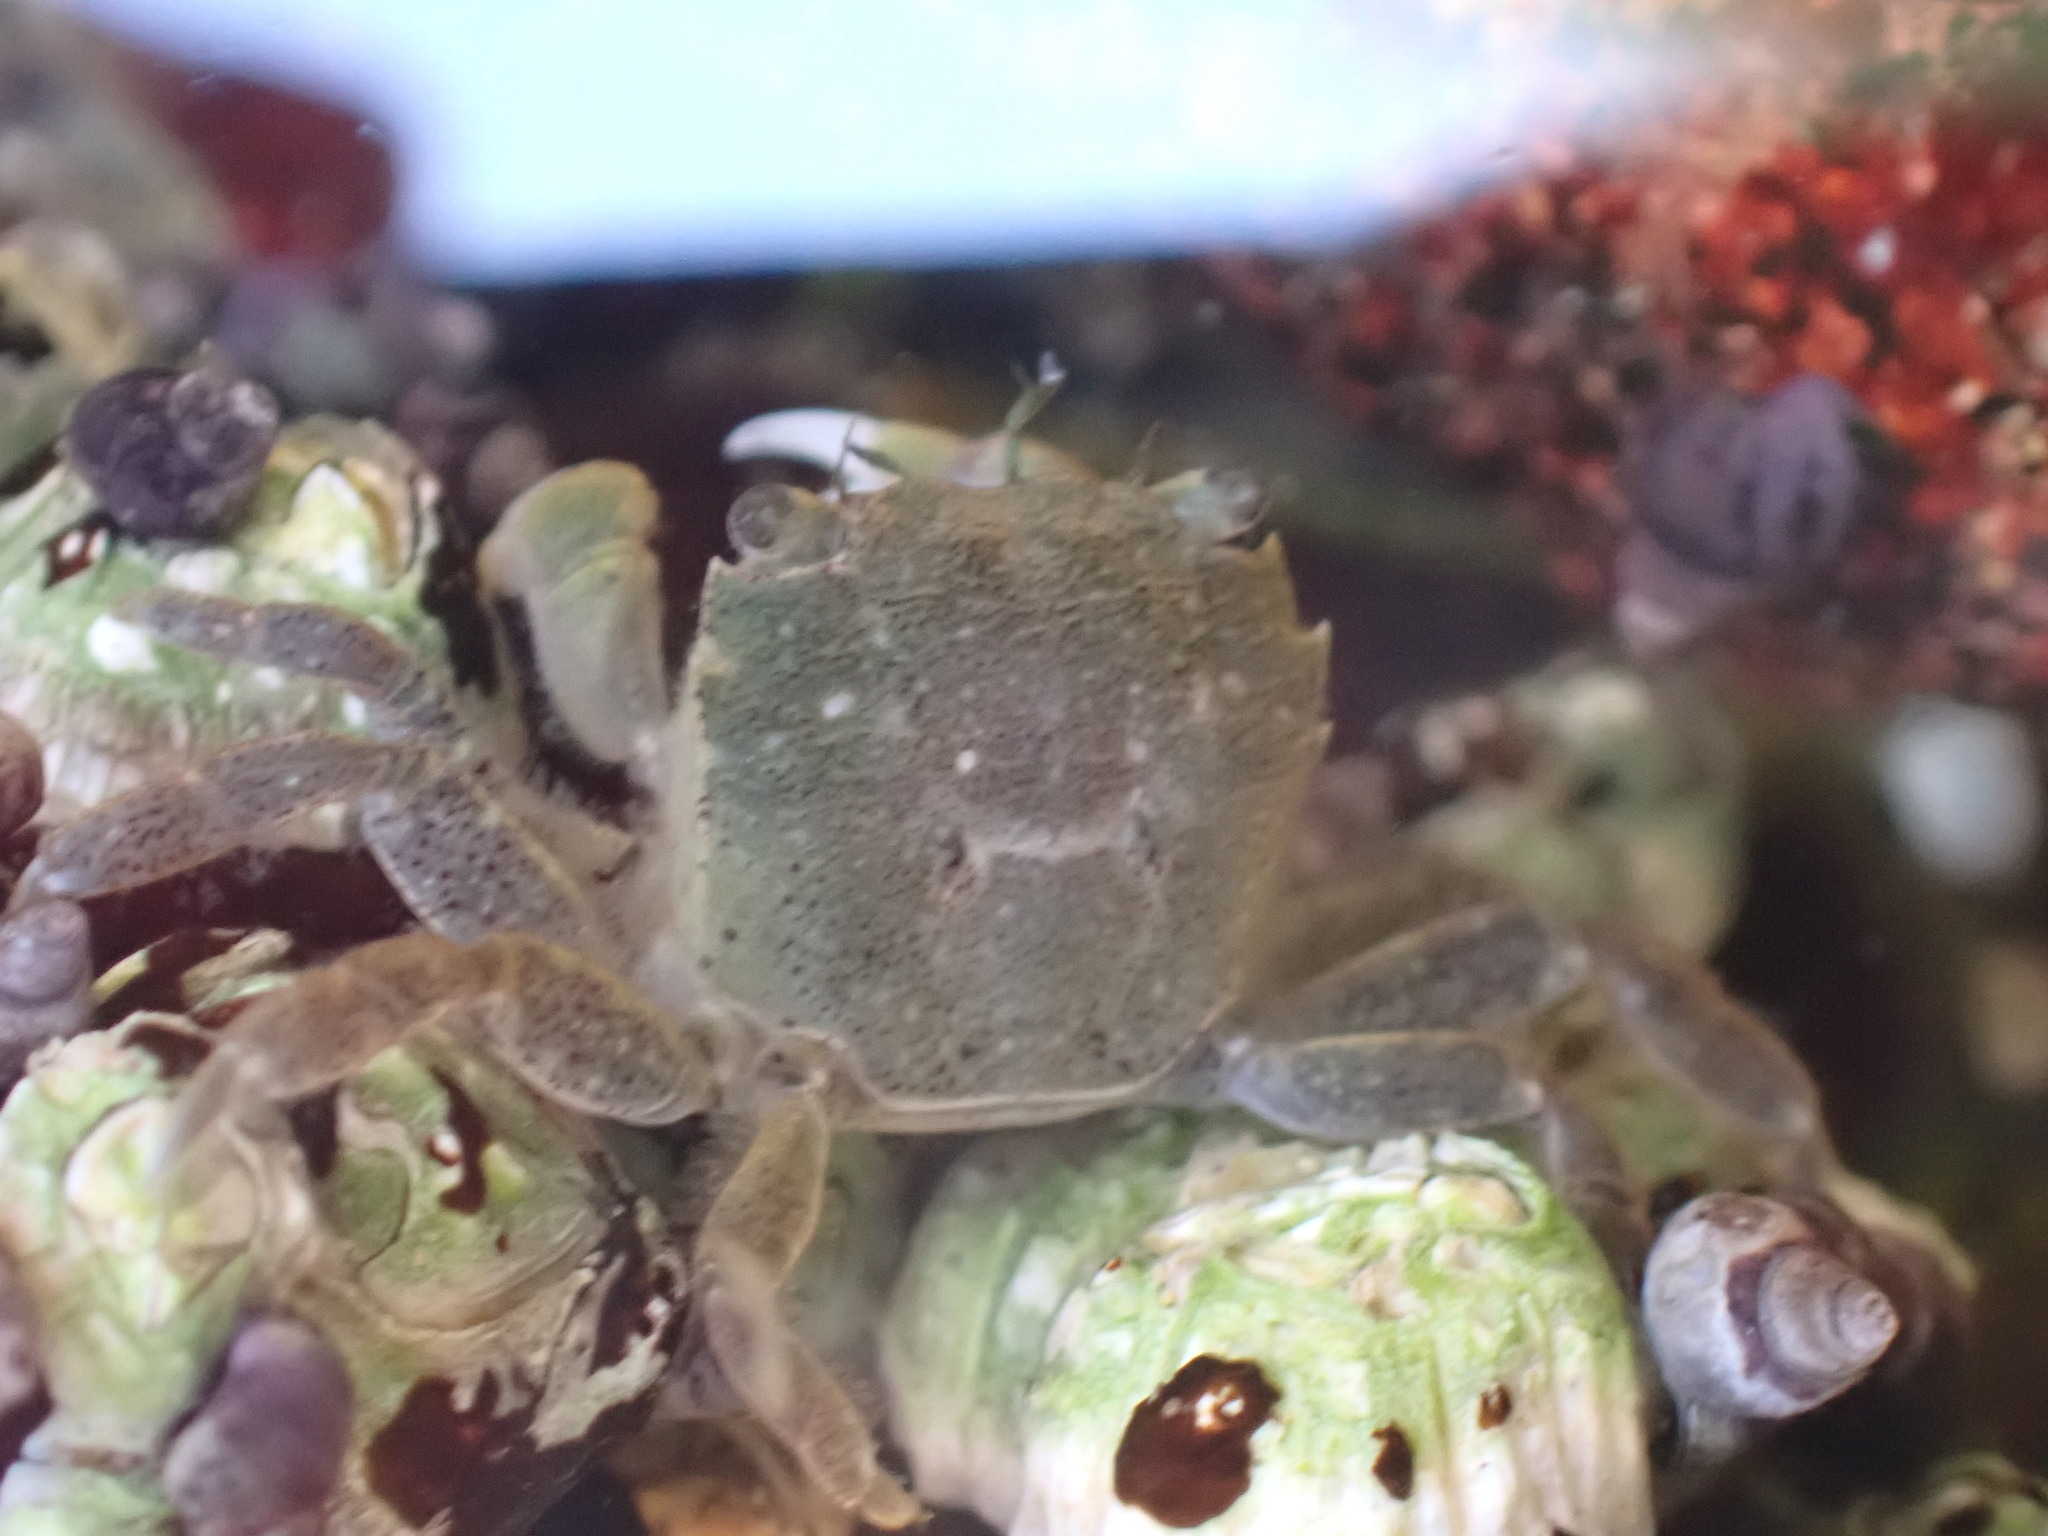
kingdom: Animalia
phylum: Arthropoda
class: Malacostraca
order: Decapoda
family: Varunidae
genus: Hemigrapsus
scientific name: Hemigrapsus oregonensis
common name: Yellow shore crab
